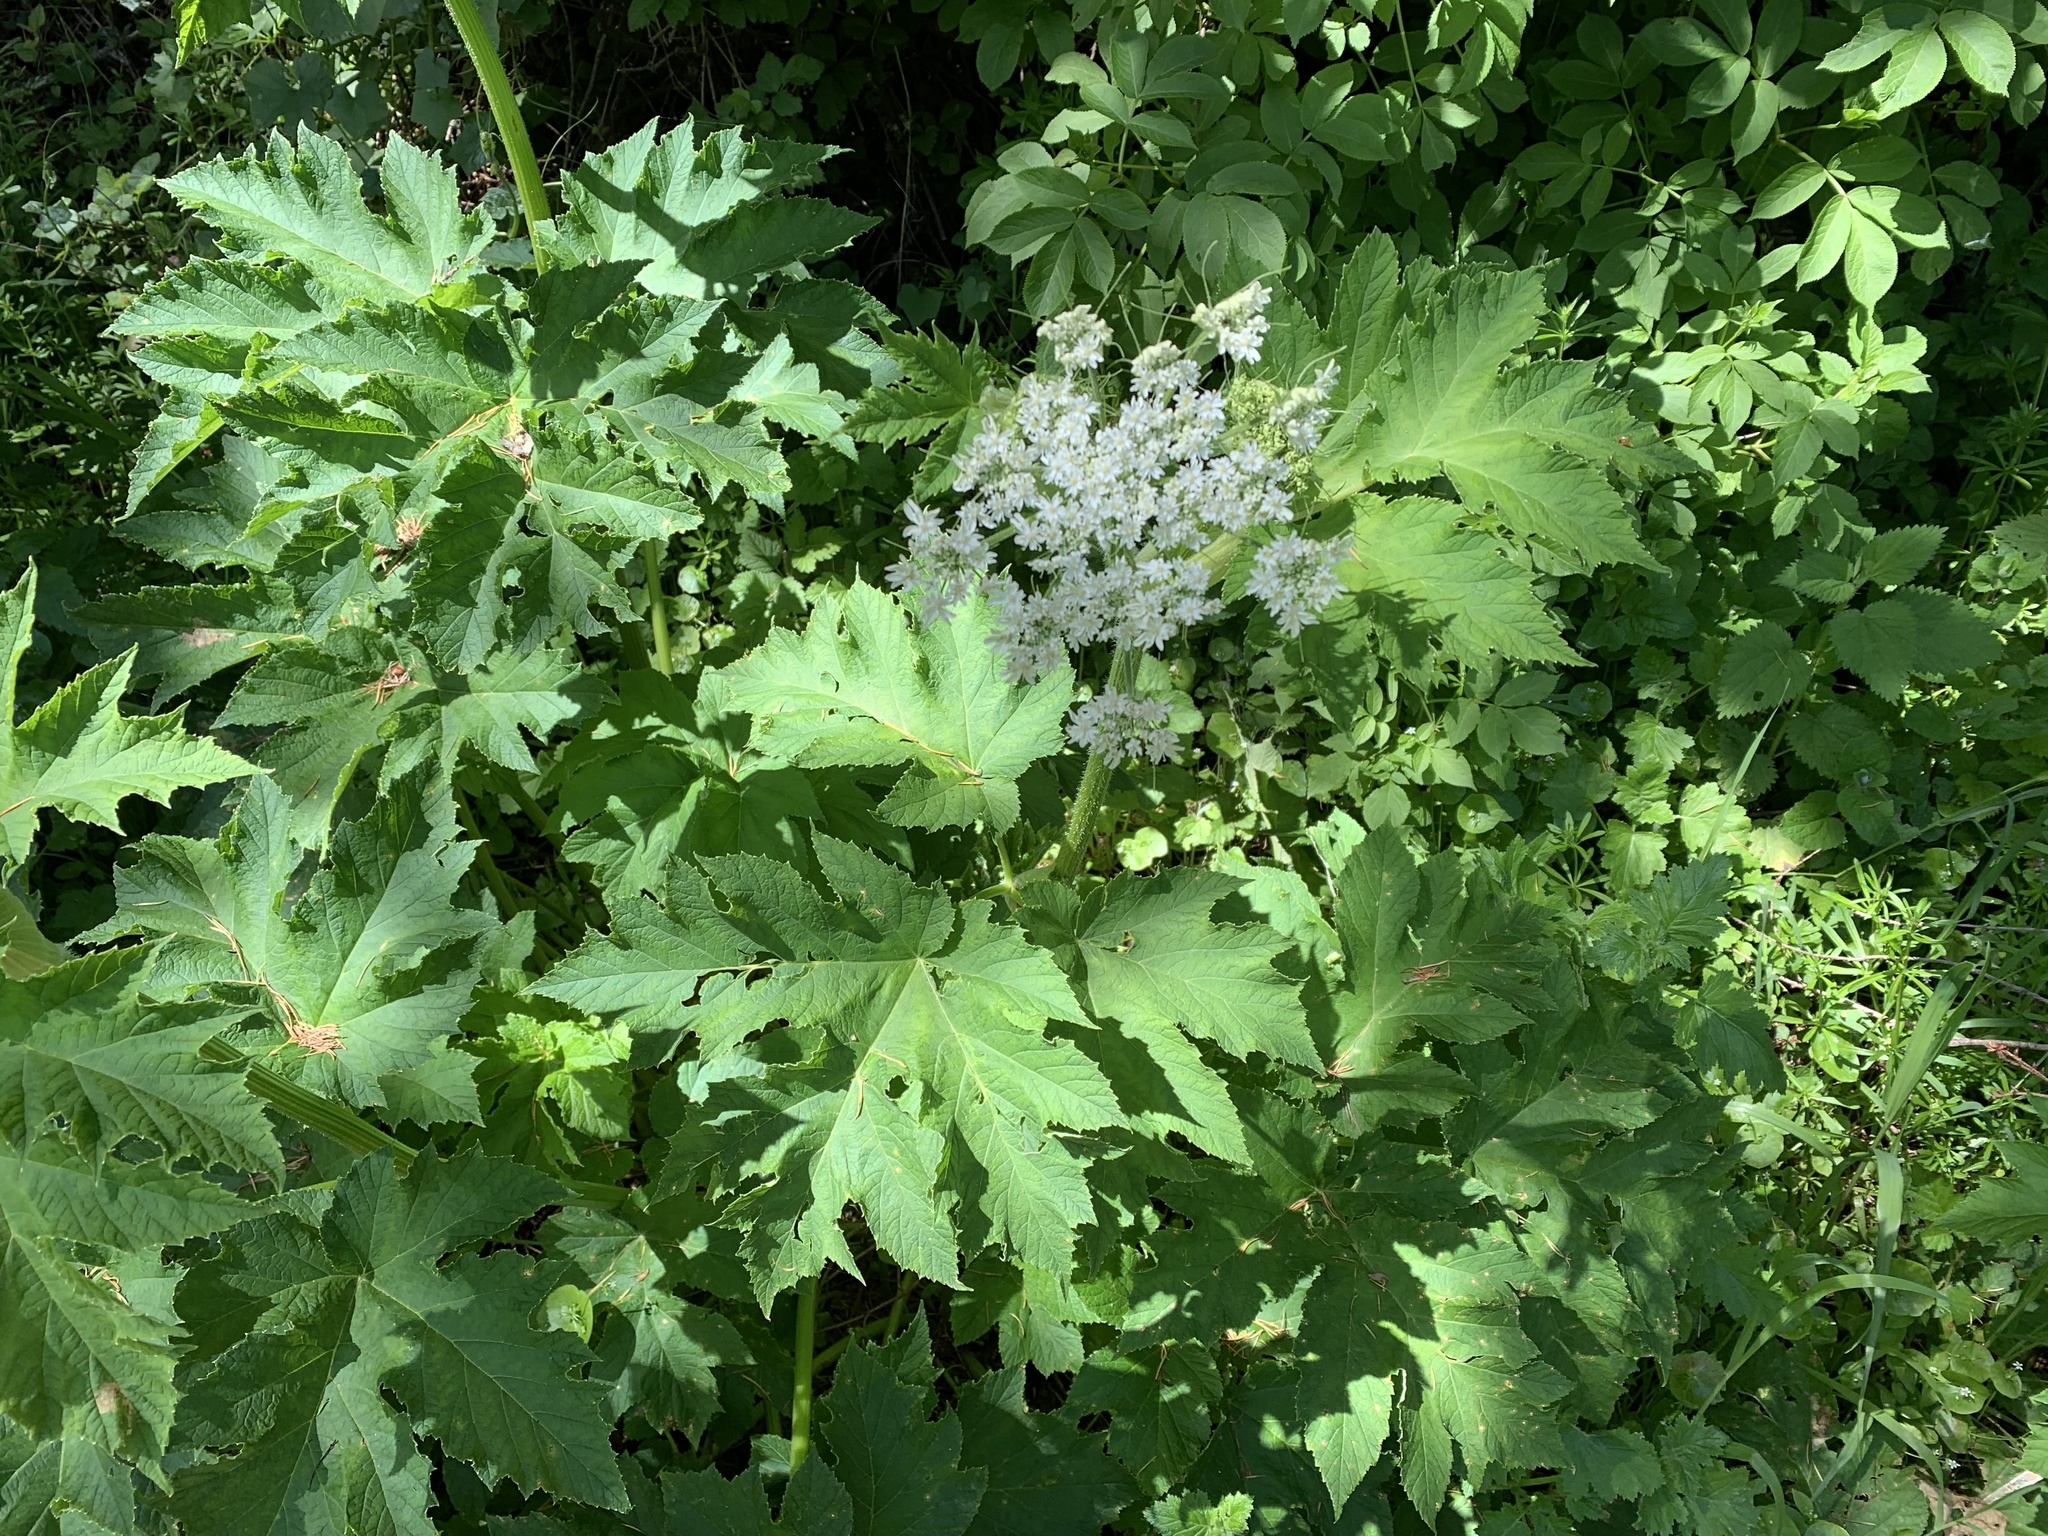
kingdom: Plantae
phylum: Tracheophyta
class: Magnoliopsida
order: Apiales
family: Apiaceae
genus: Heracleum
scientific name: Heracleum maximum
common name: American cow parsnip
